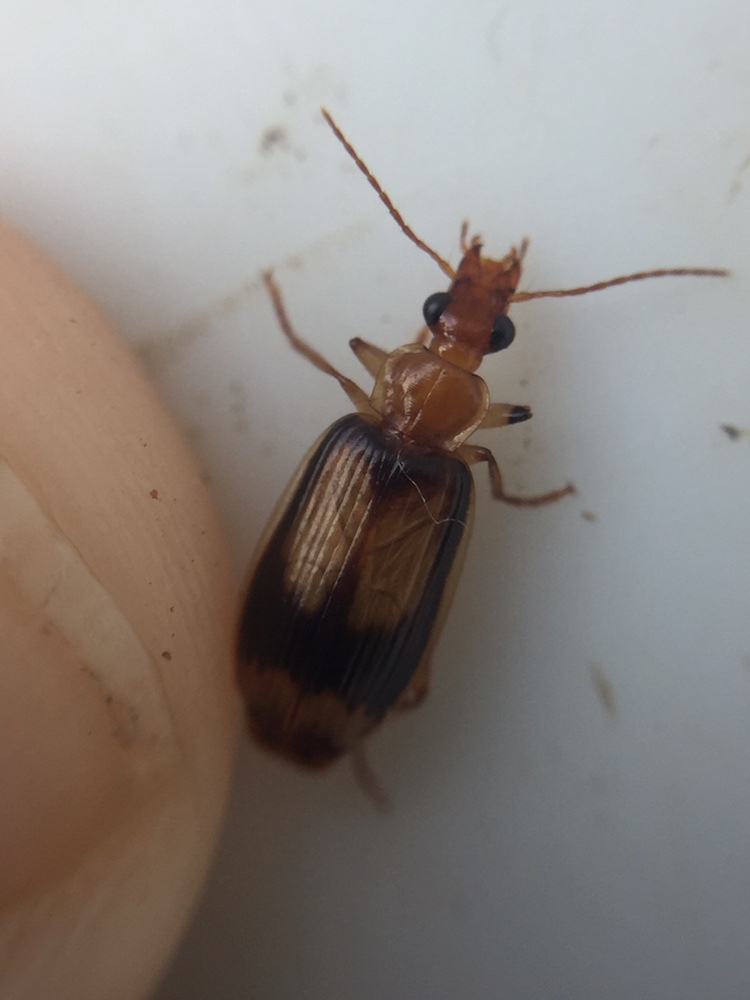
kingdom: Animalia
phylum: Arthropoda
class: Insecta
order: Coleoptera
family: Carabidae
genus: Trigonothops
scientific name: Trigonothops pacificus
